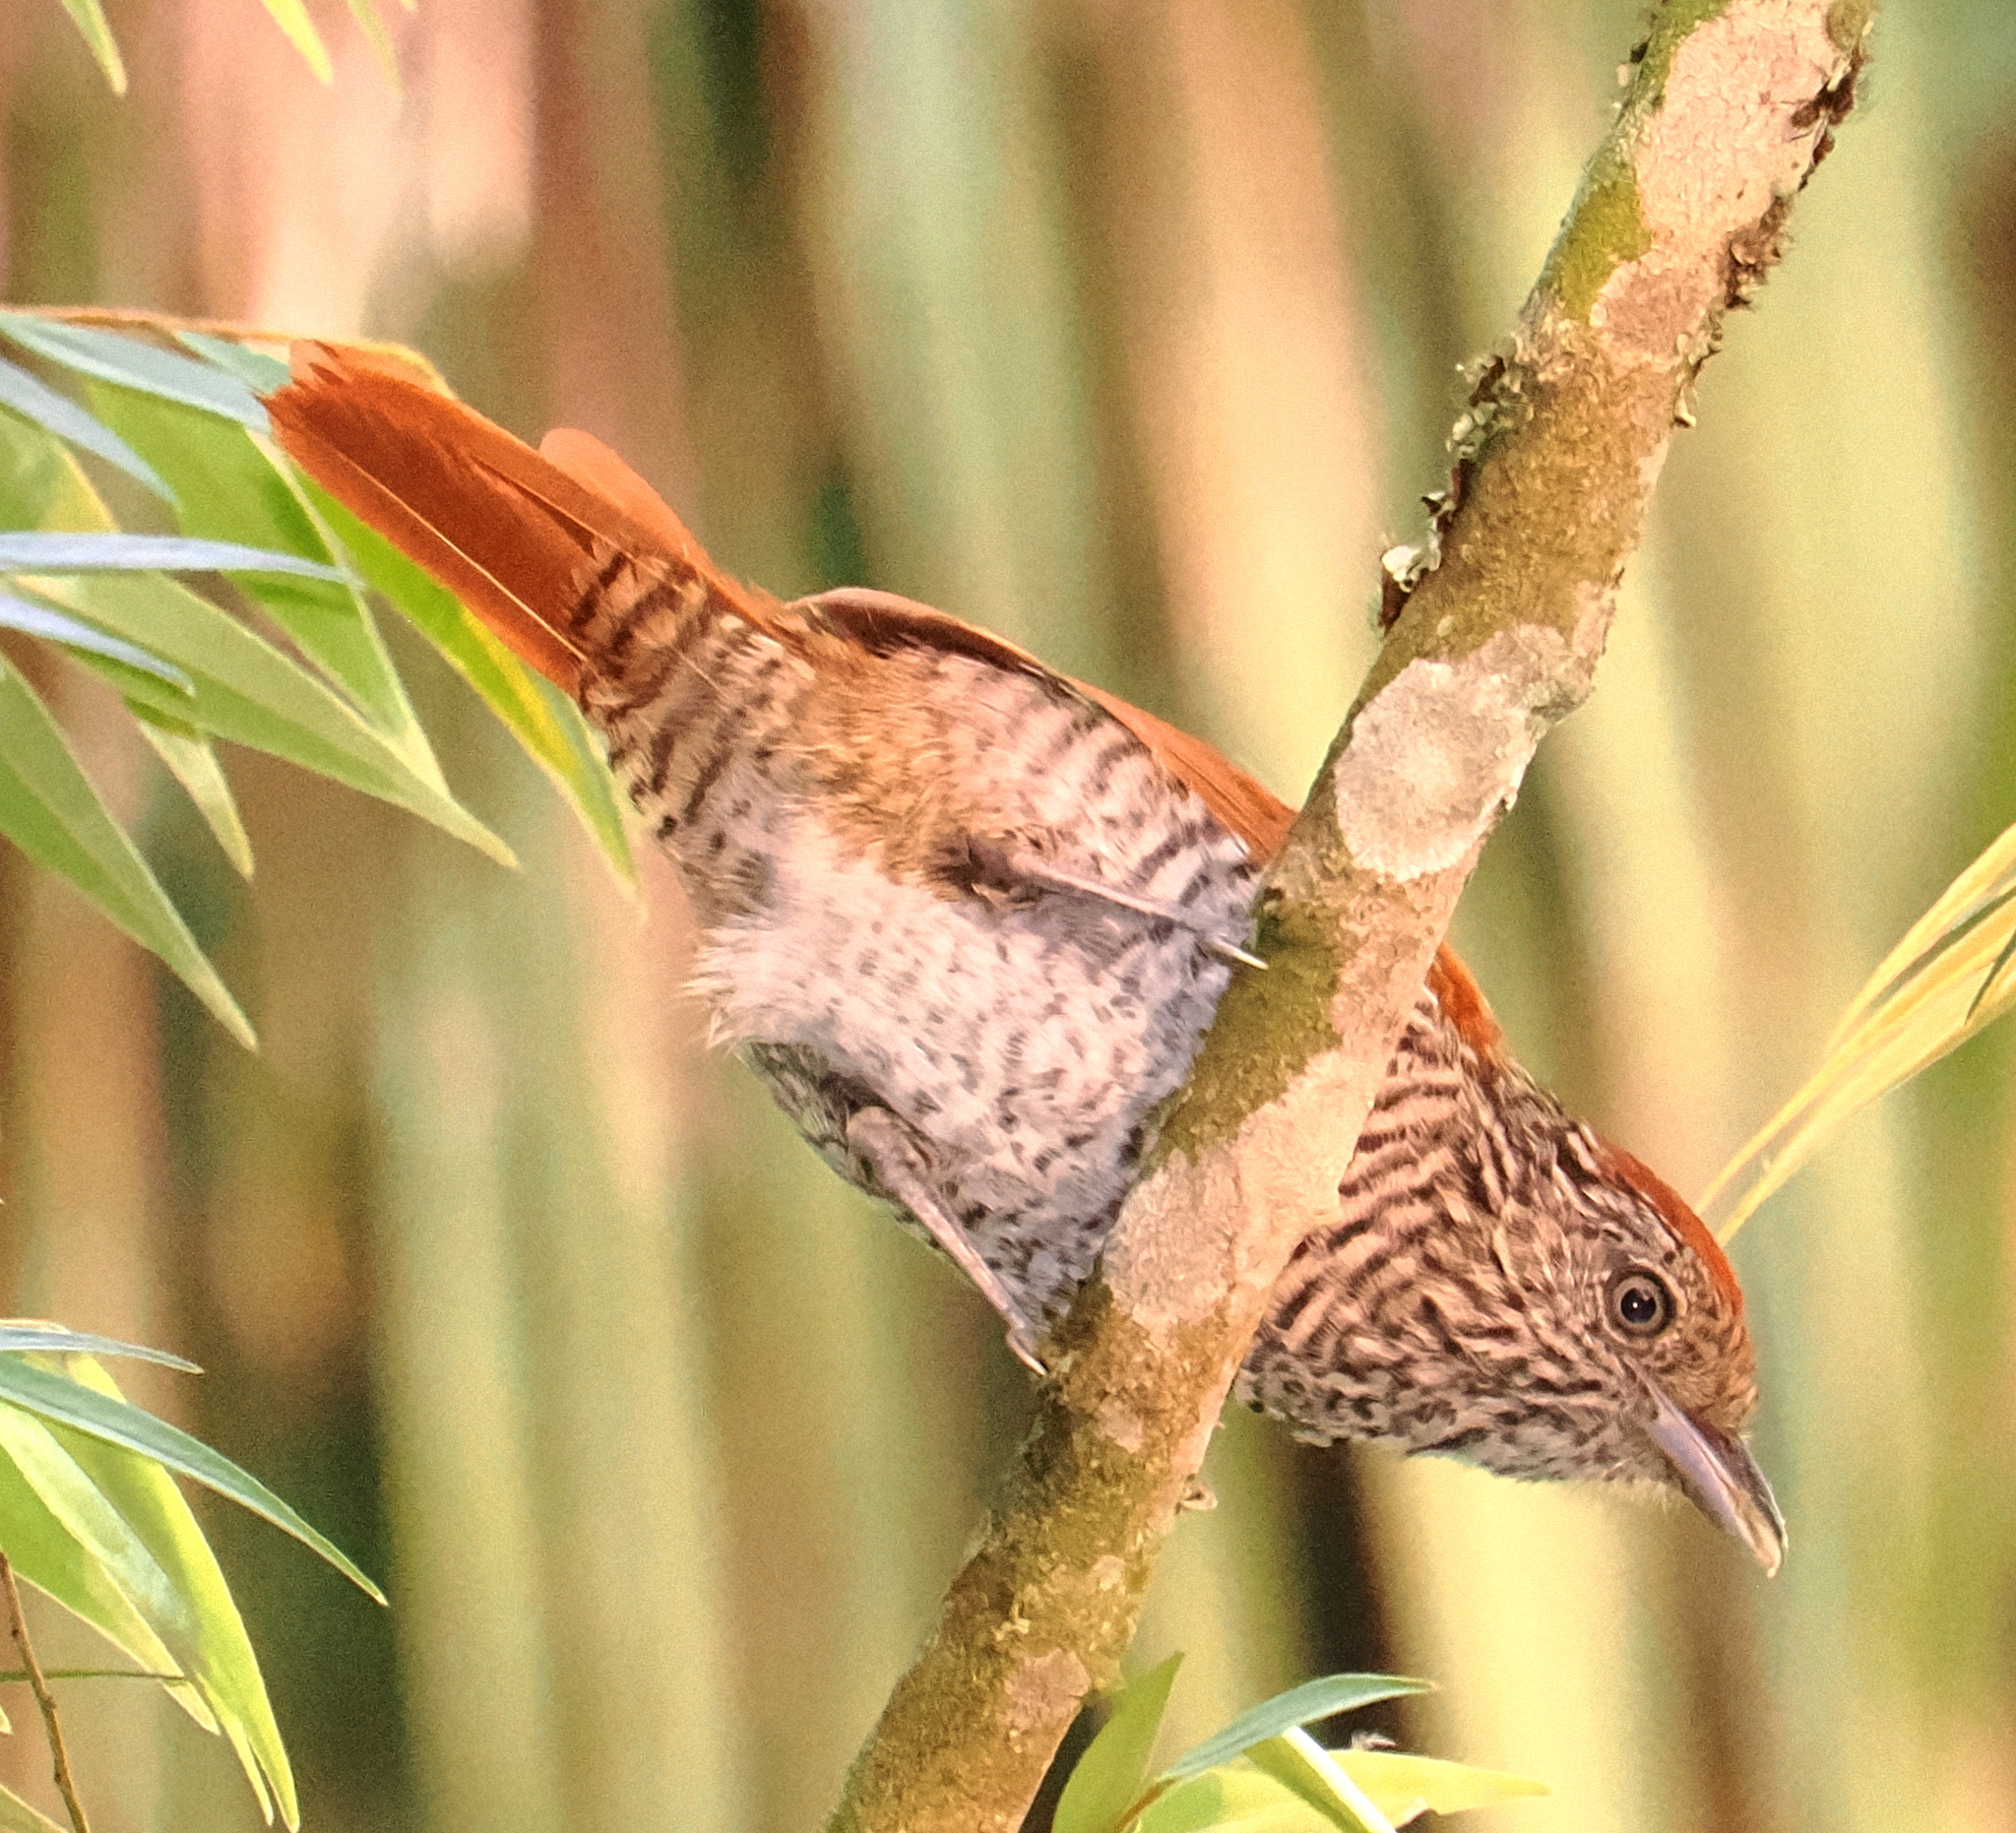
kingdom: Animalia
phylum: Chordata
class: Aves
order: Passeriformes
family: Thamnophilidae
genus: Thamnophilus
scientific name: Thamnophilus multistriatus
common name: Bar-crested antshrike
